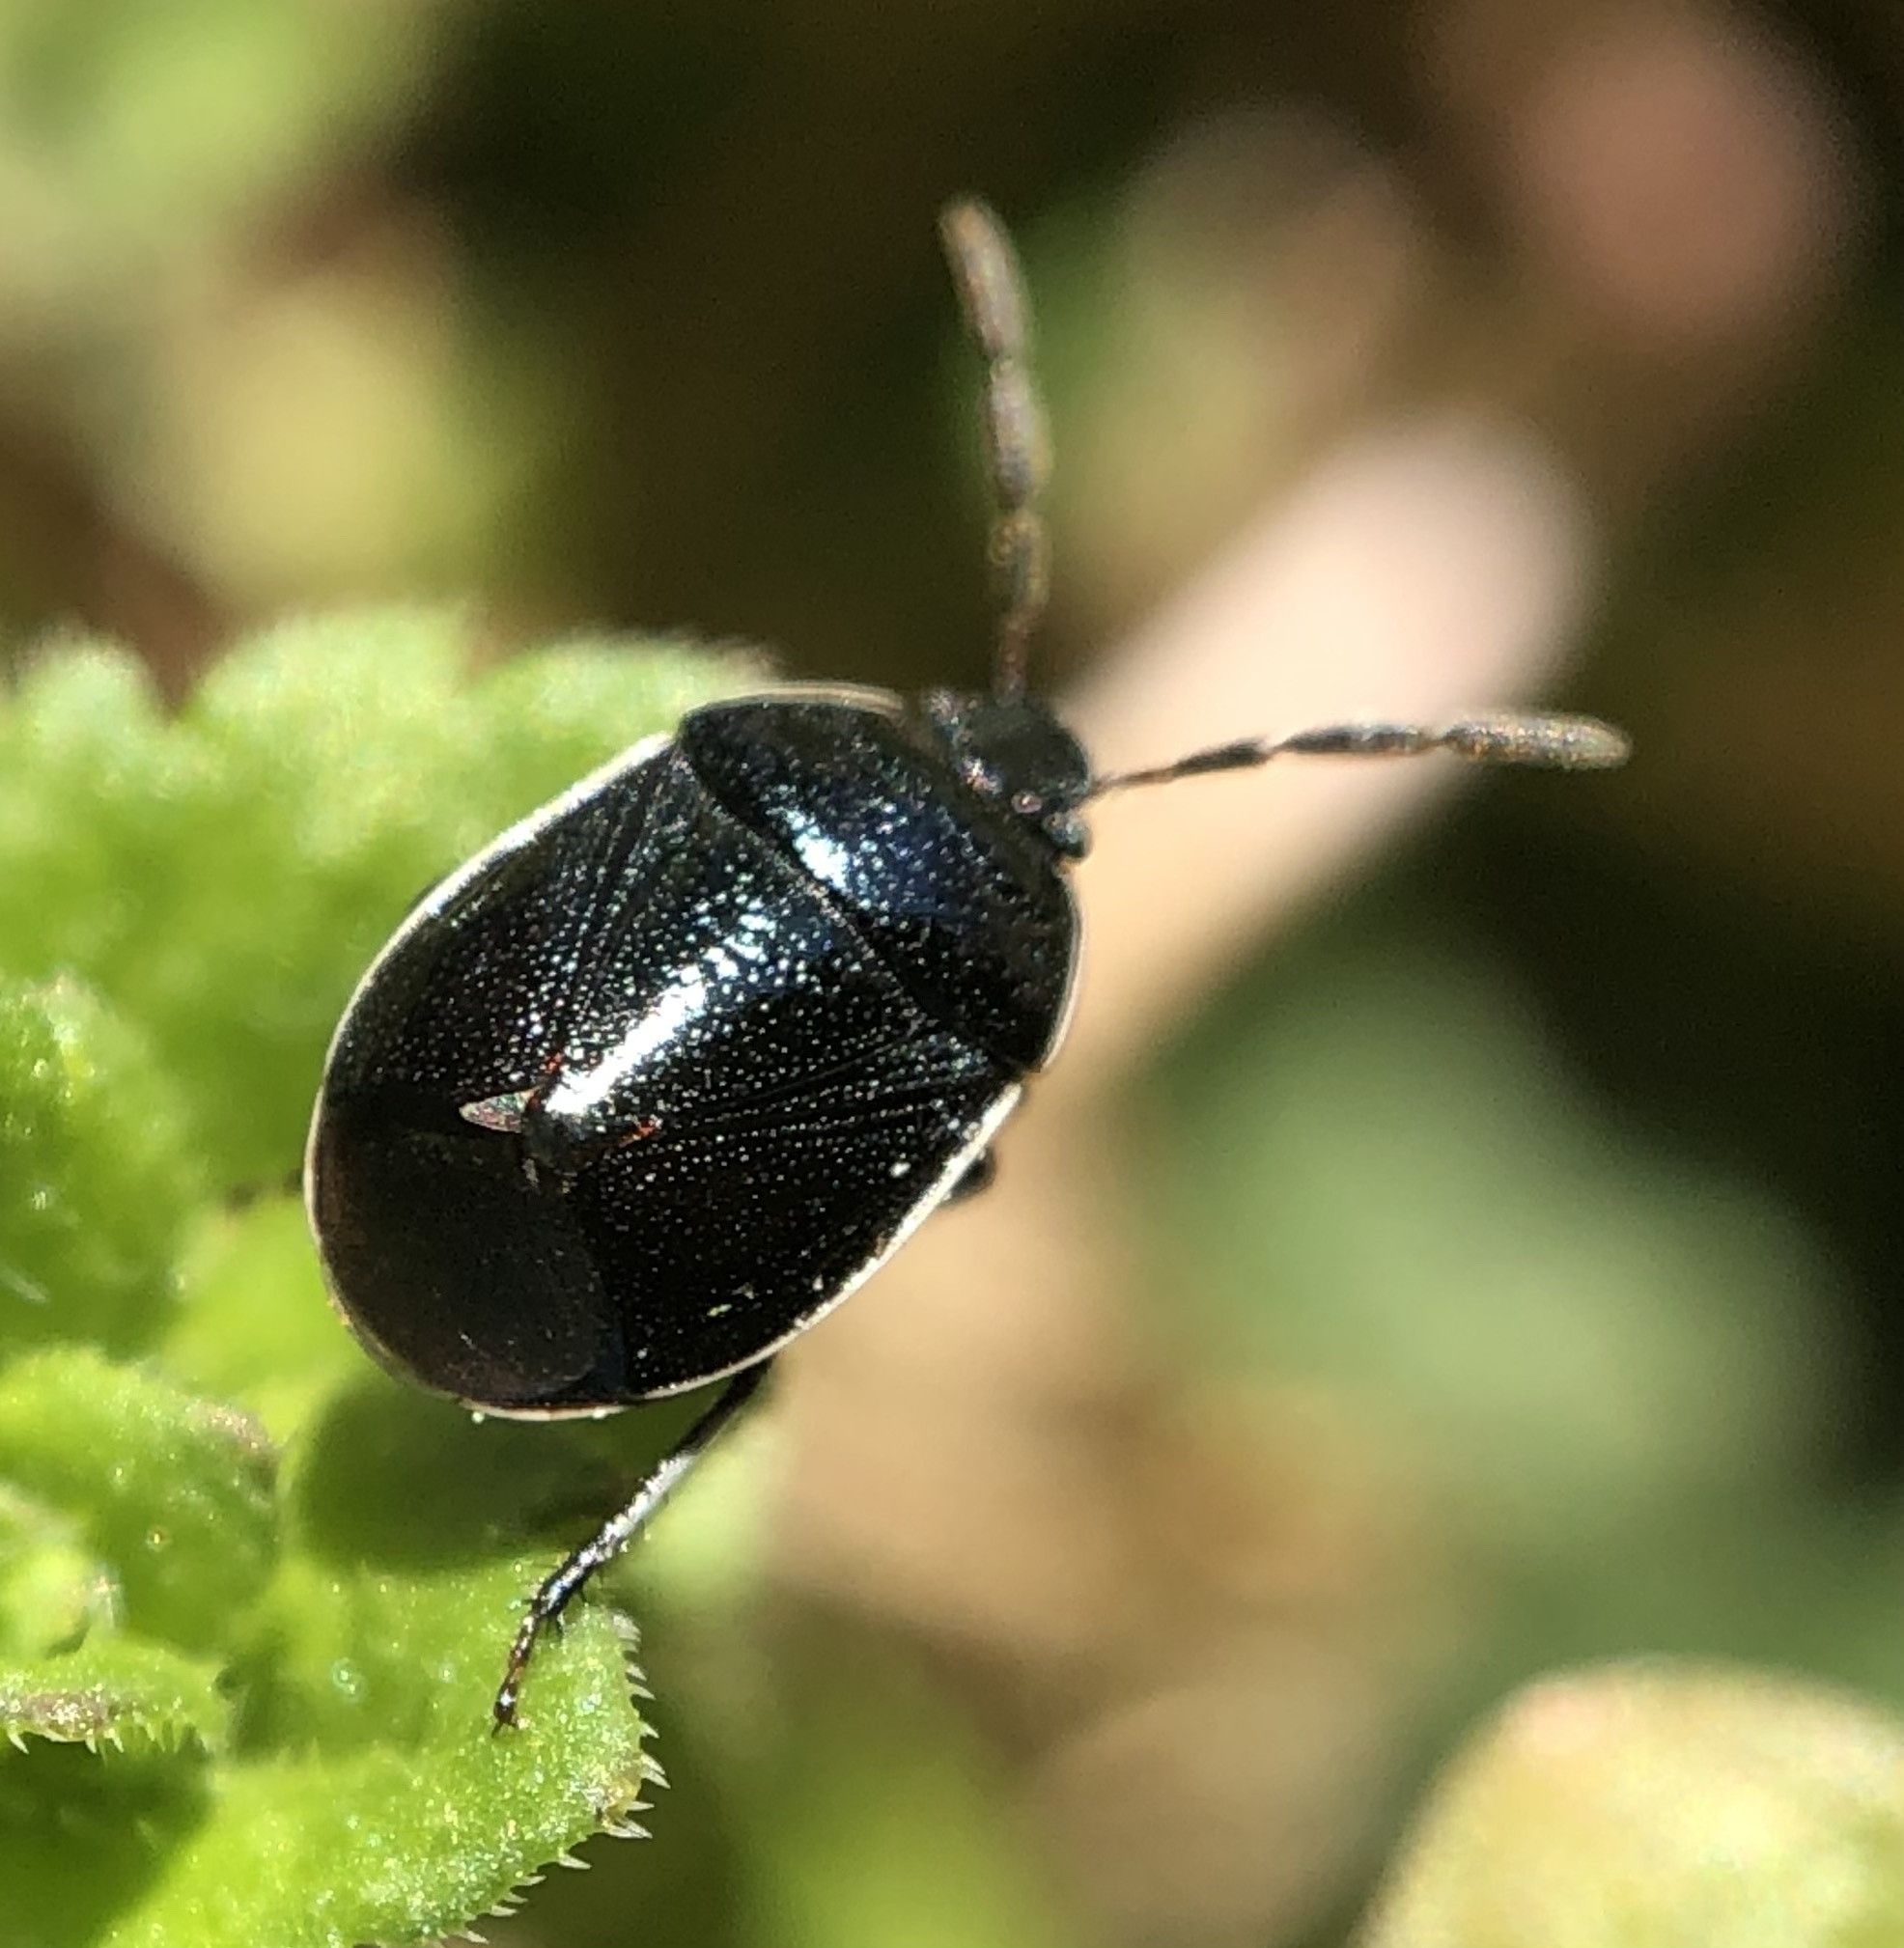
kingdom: Animalia
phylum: Arthropoda
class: Insecta
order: Hemiptera
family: Cydnidae
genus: Sehirus
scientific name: Sehirus cinctus
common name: White-margined burrower bug
